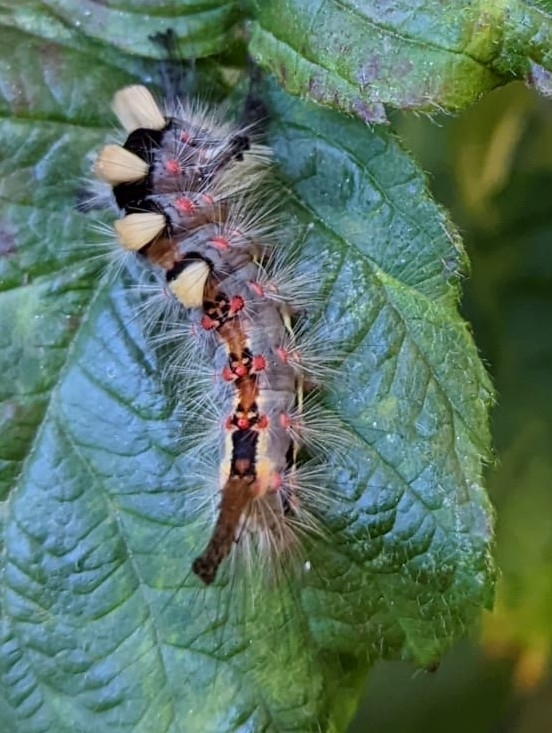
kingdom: Animalia
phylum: Arthropoda
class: Insecta
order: Lepidoptera
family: Erebidae
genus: Orgyia
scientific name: Orgyia antiqua
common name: Vapourer
